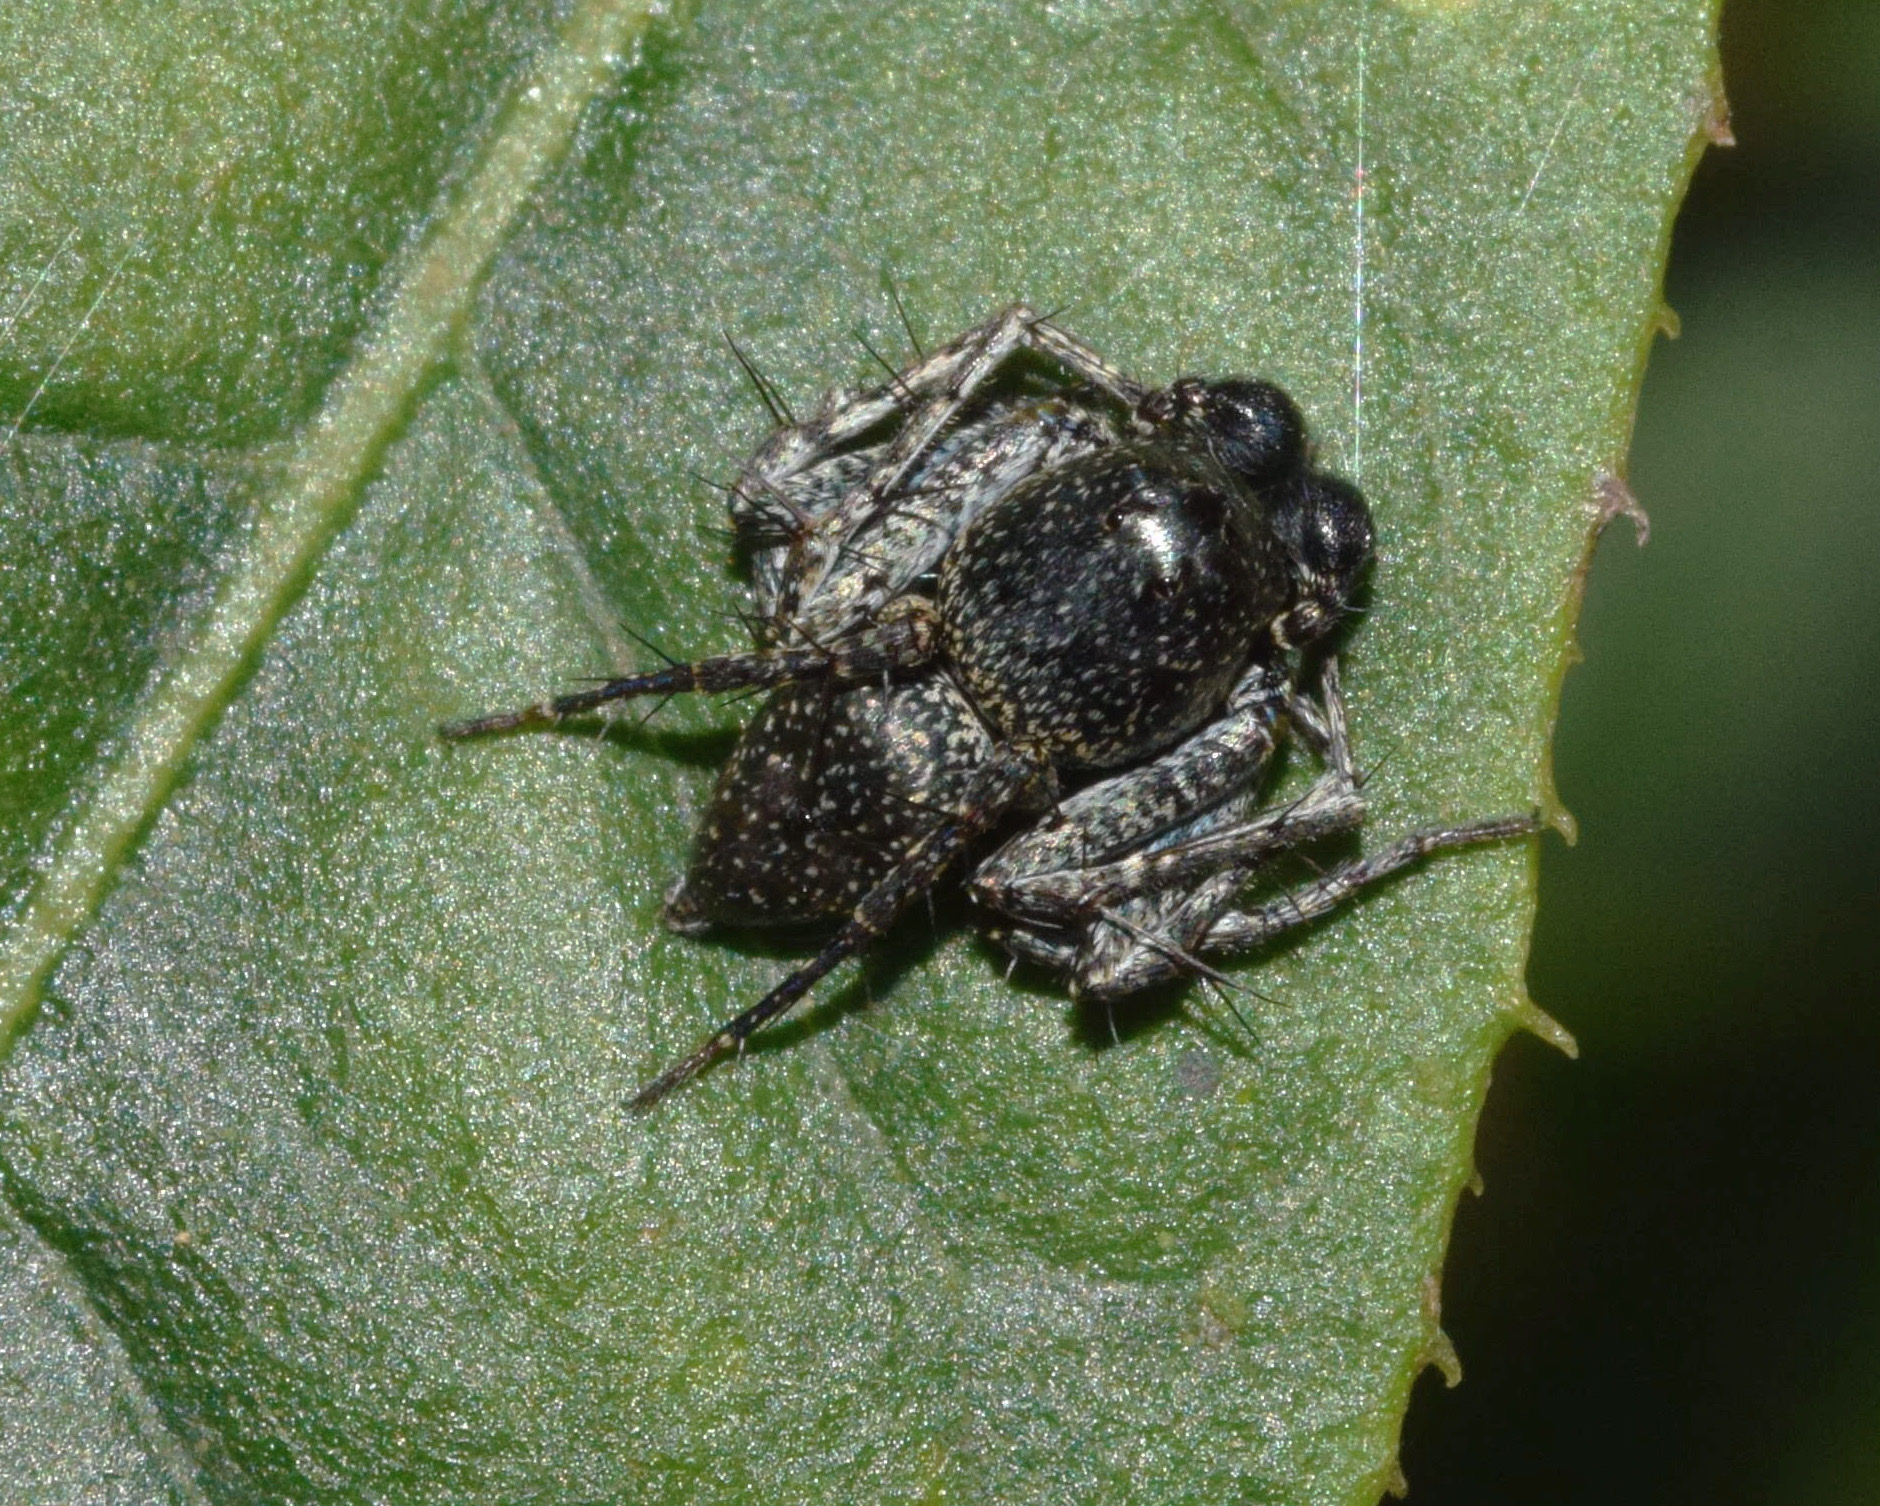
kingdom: Animalia
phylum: Arthropoda
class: Arachnida
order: Araneae
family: Oxyopidae
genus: Oxyopes
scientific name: Oxyopes tuberculatus
